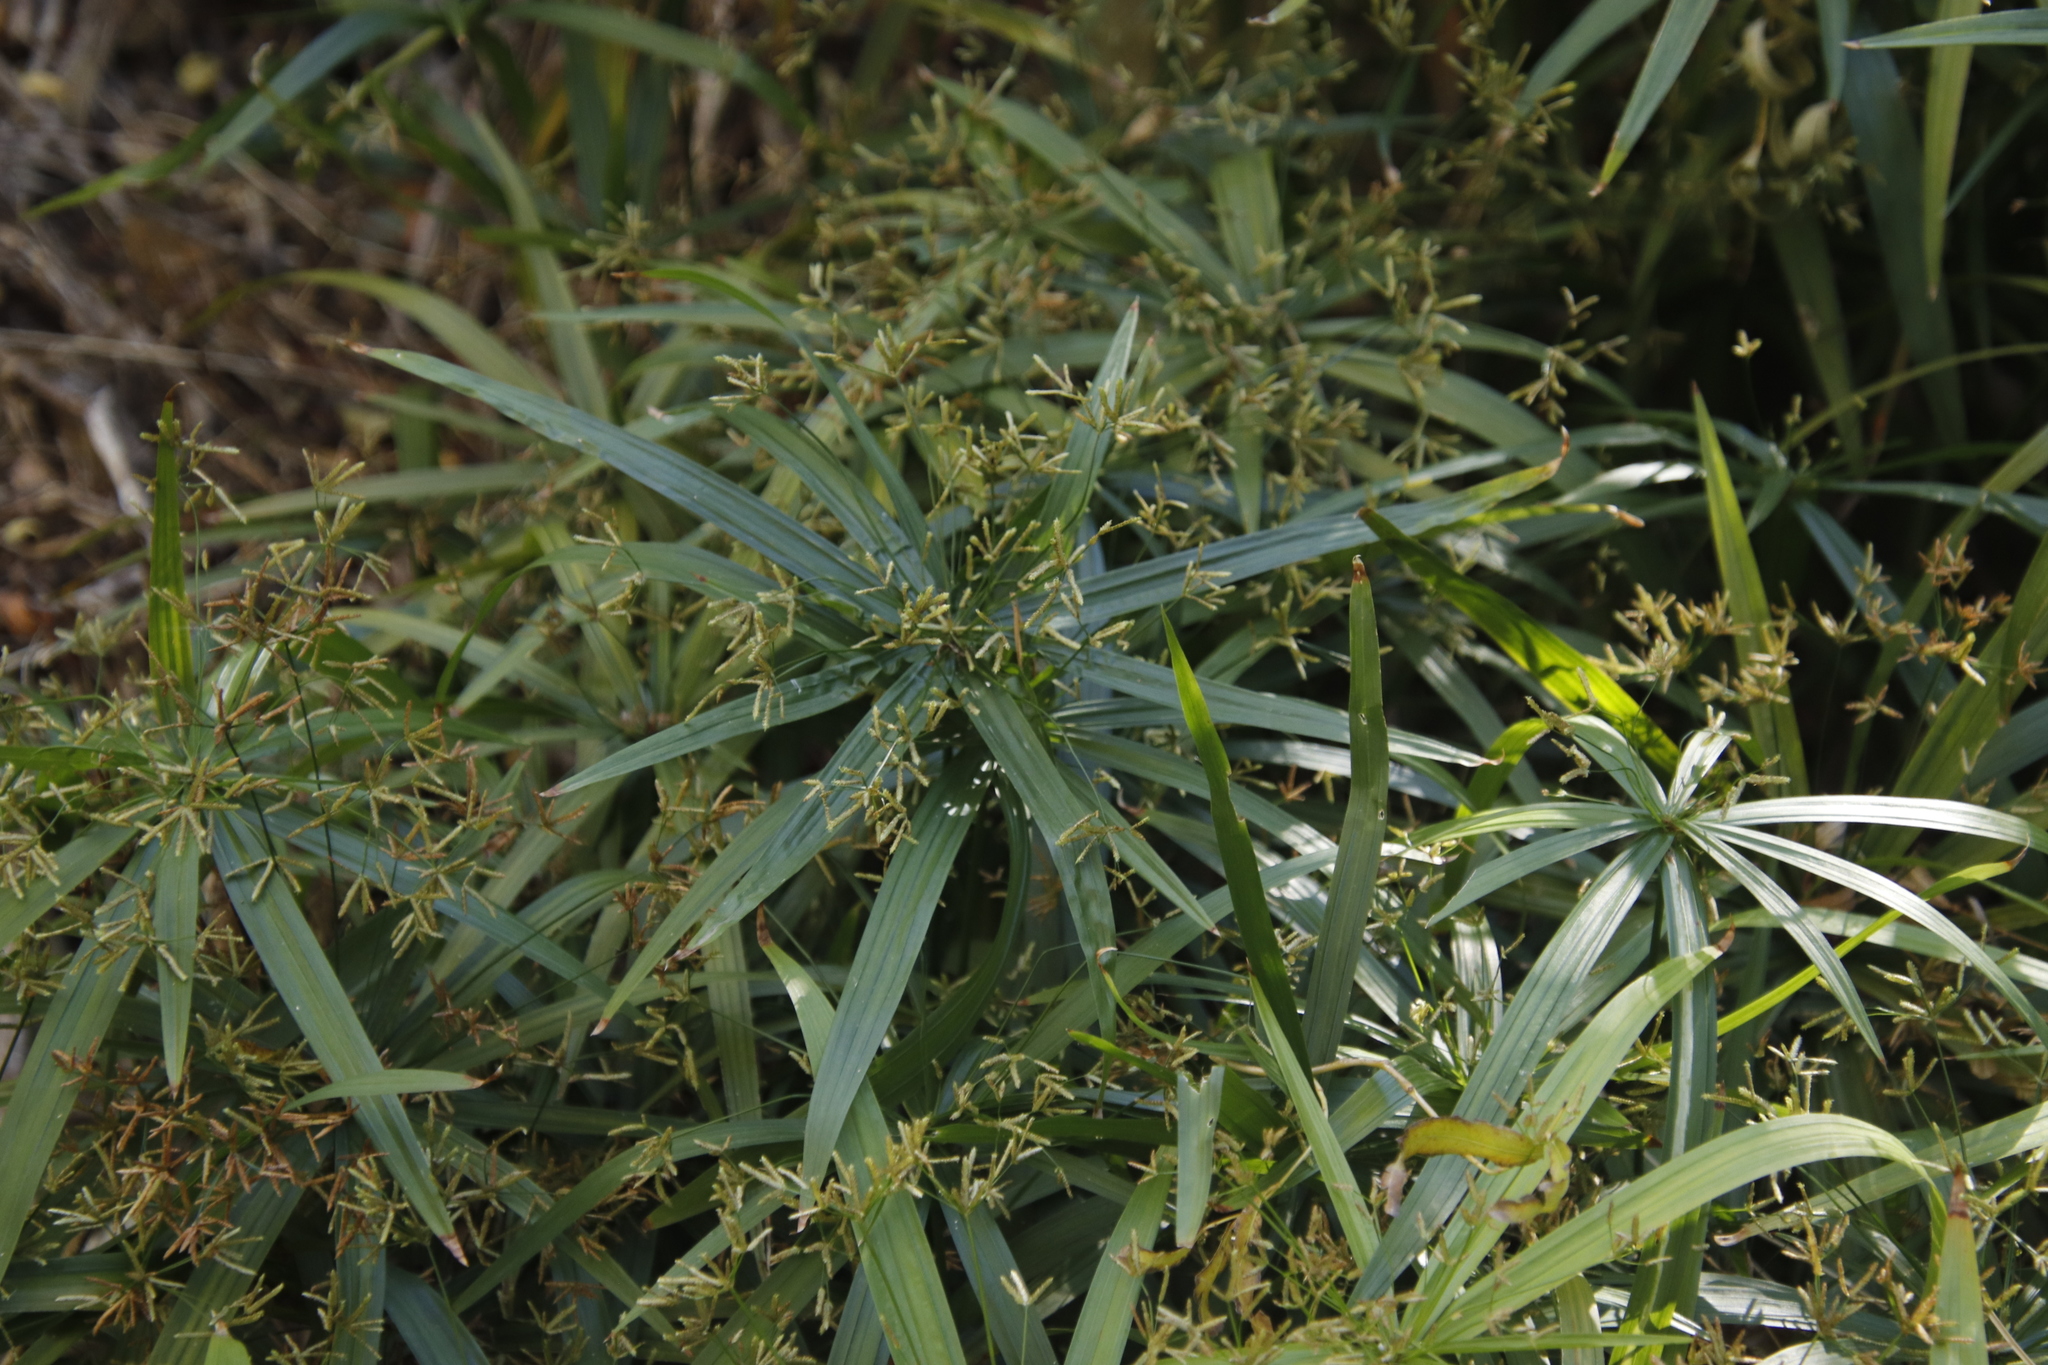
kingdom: Plantae
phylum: Tracheophyta
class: Liliopsida
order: Poales
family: Cyperaceae
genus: Cyperus
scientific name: Cyperus albostriatus
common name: Dwarf umbrella-grass
